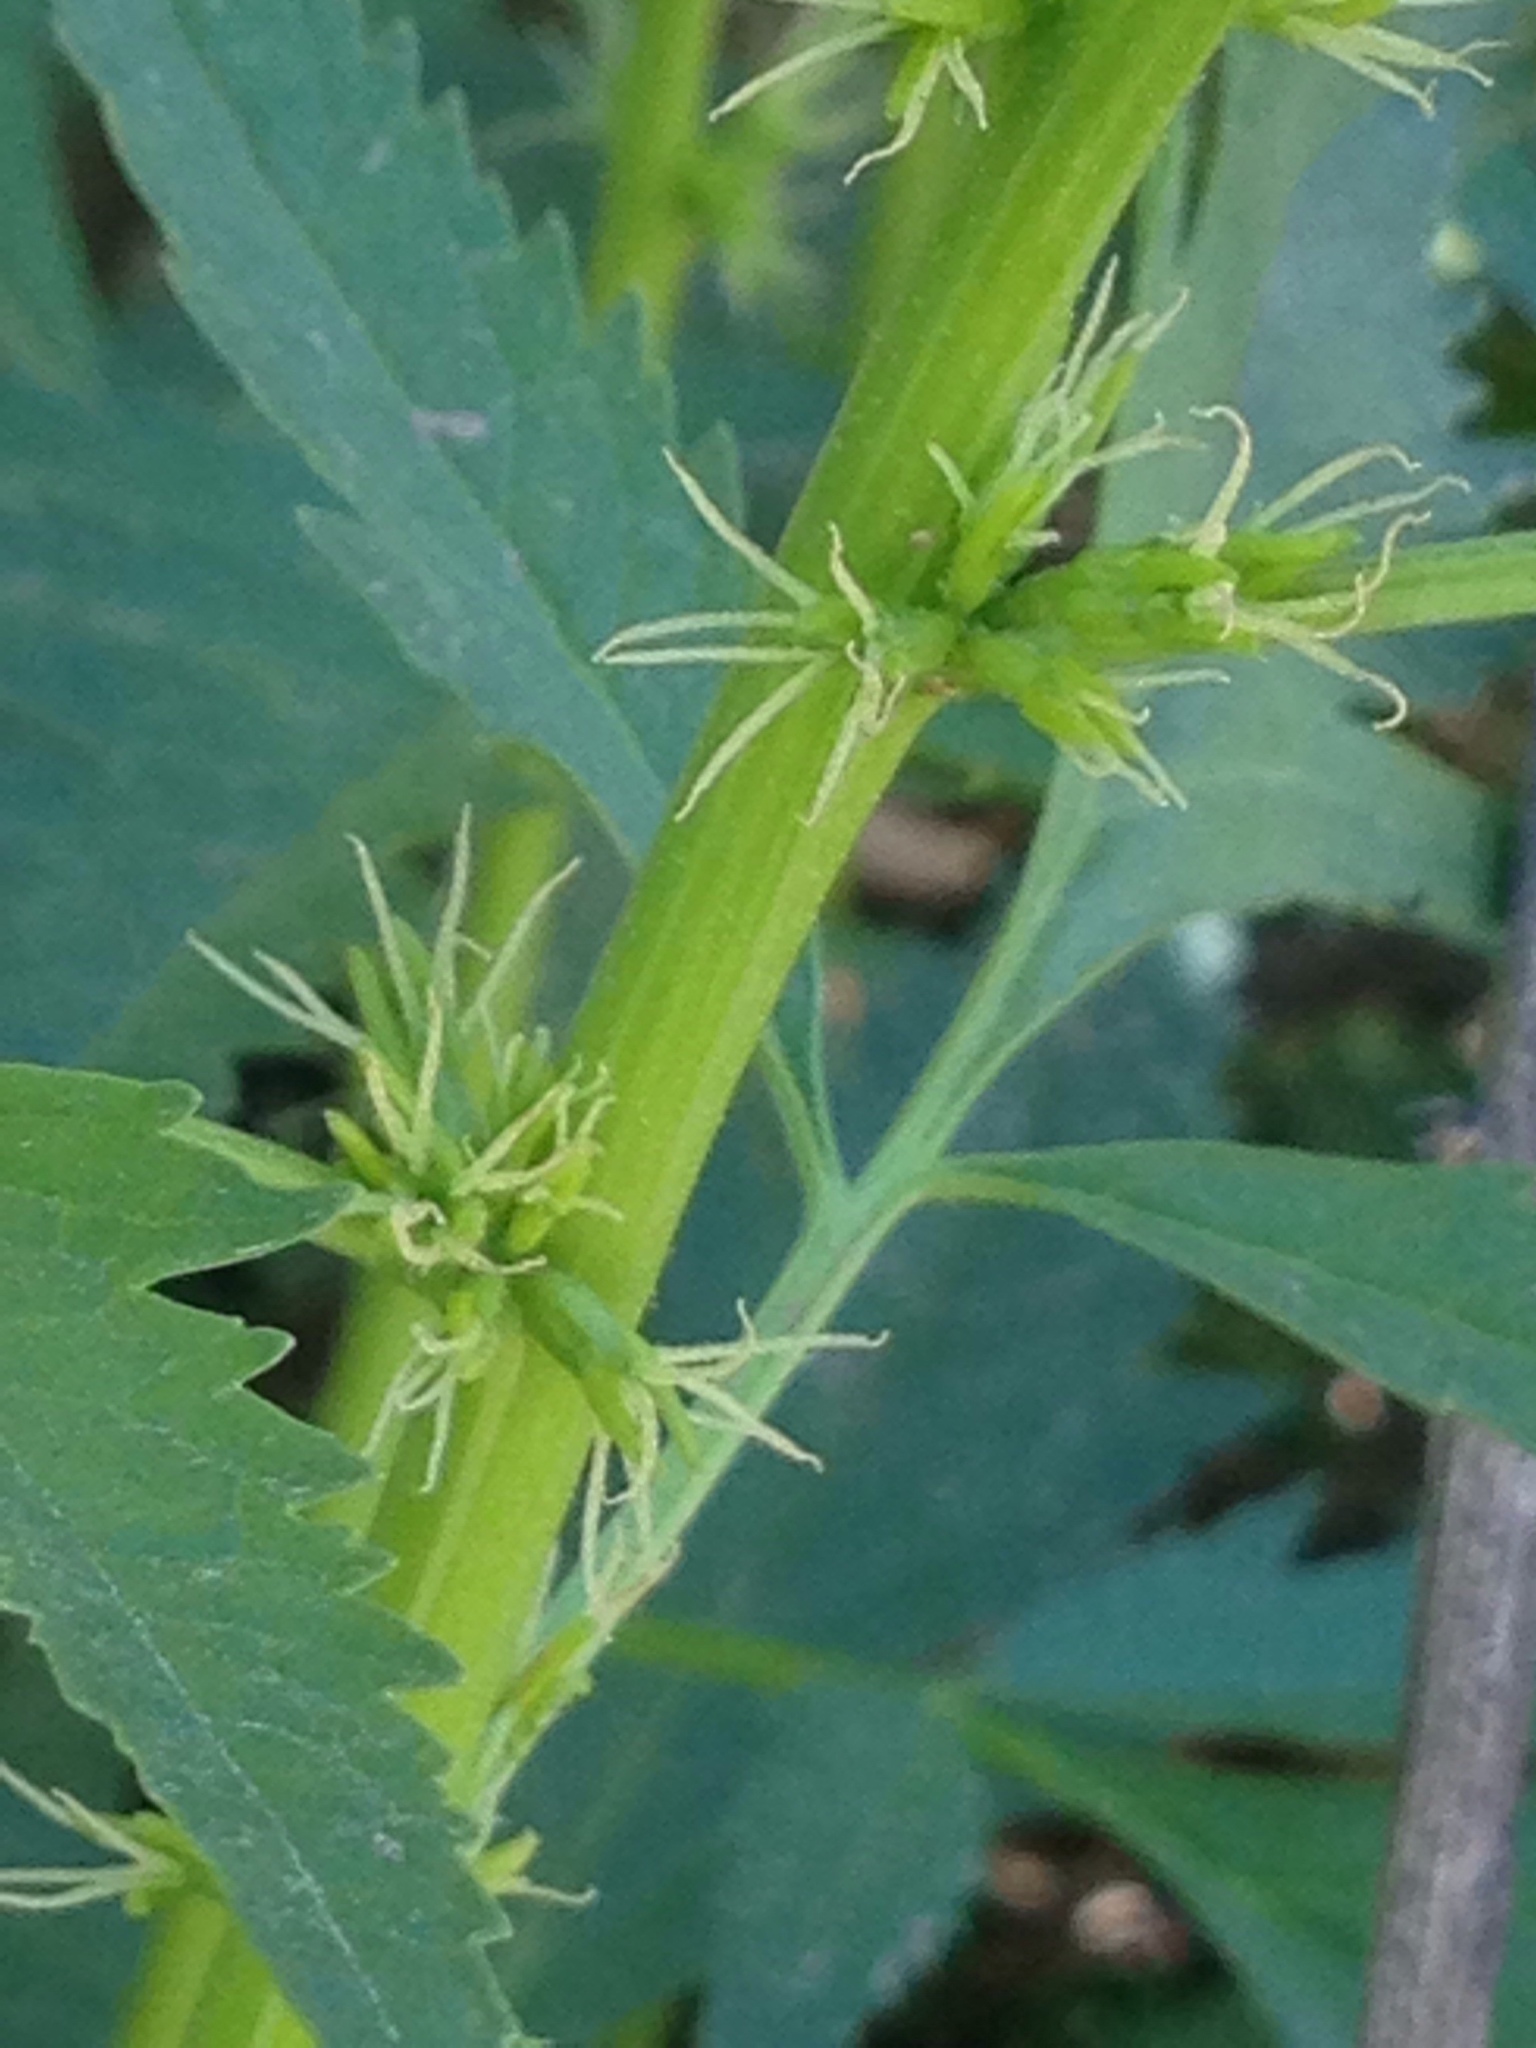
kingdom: Plantae
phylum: Tracheophyta
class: Magnoliopsida
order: Cucurbitales
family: Datiscaceae
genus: Datisca
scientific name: Datisca glomerata
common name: Durango-root
